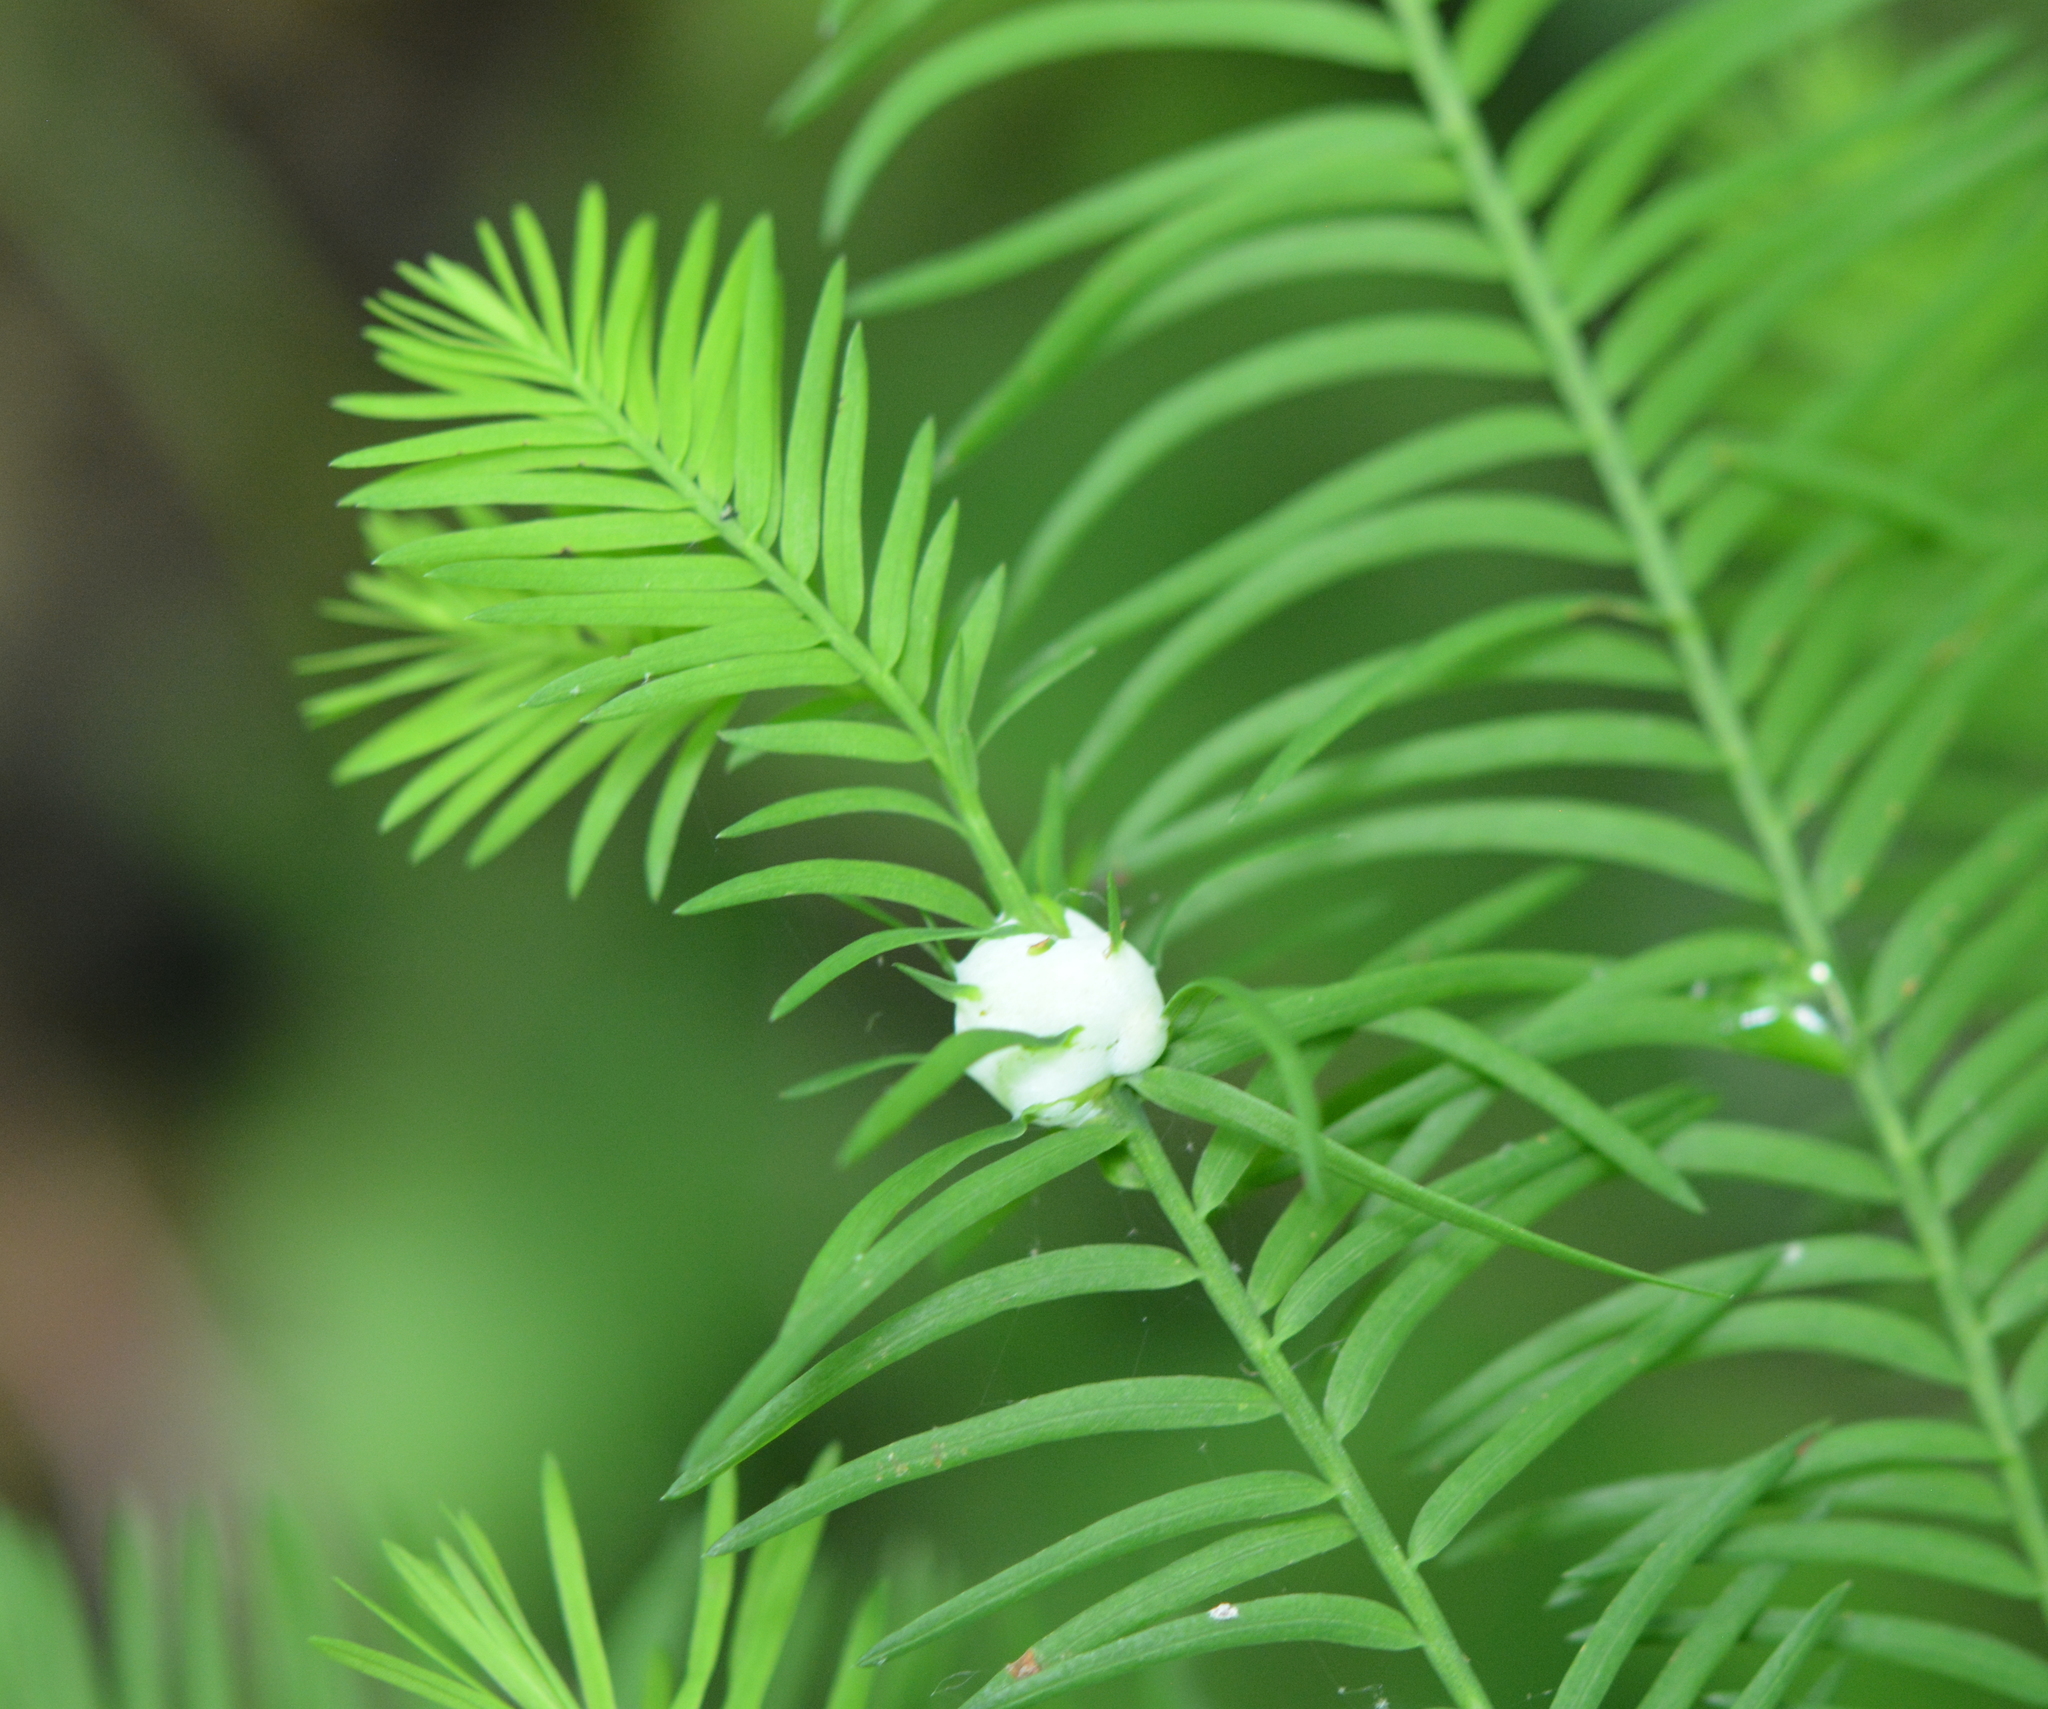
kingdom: Animalia
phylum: Arthropoda
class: Insecta
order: Diptera
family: Cecidomyiidae
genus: Taxodiomyia
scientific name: Taxodiomyia cupressiananassa
